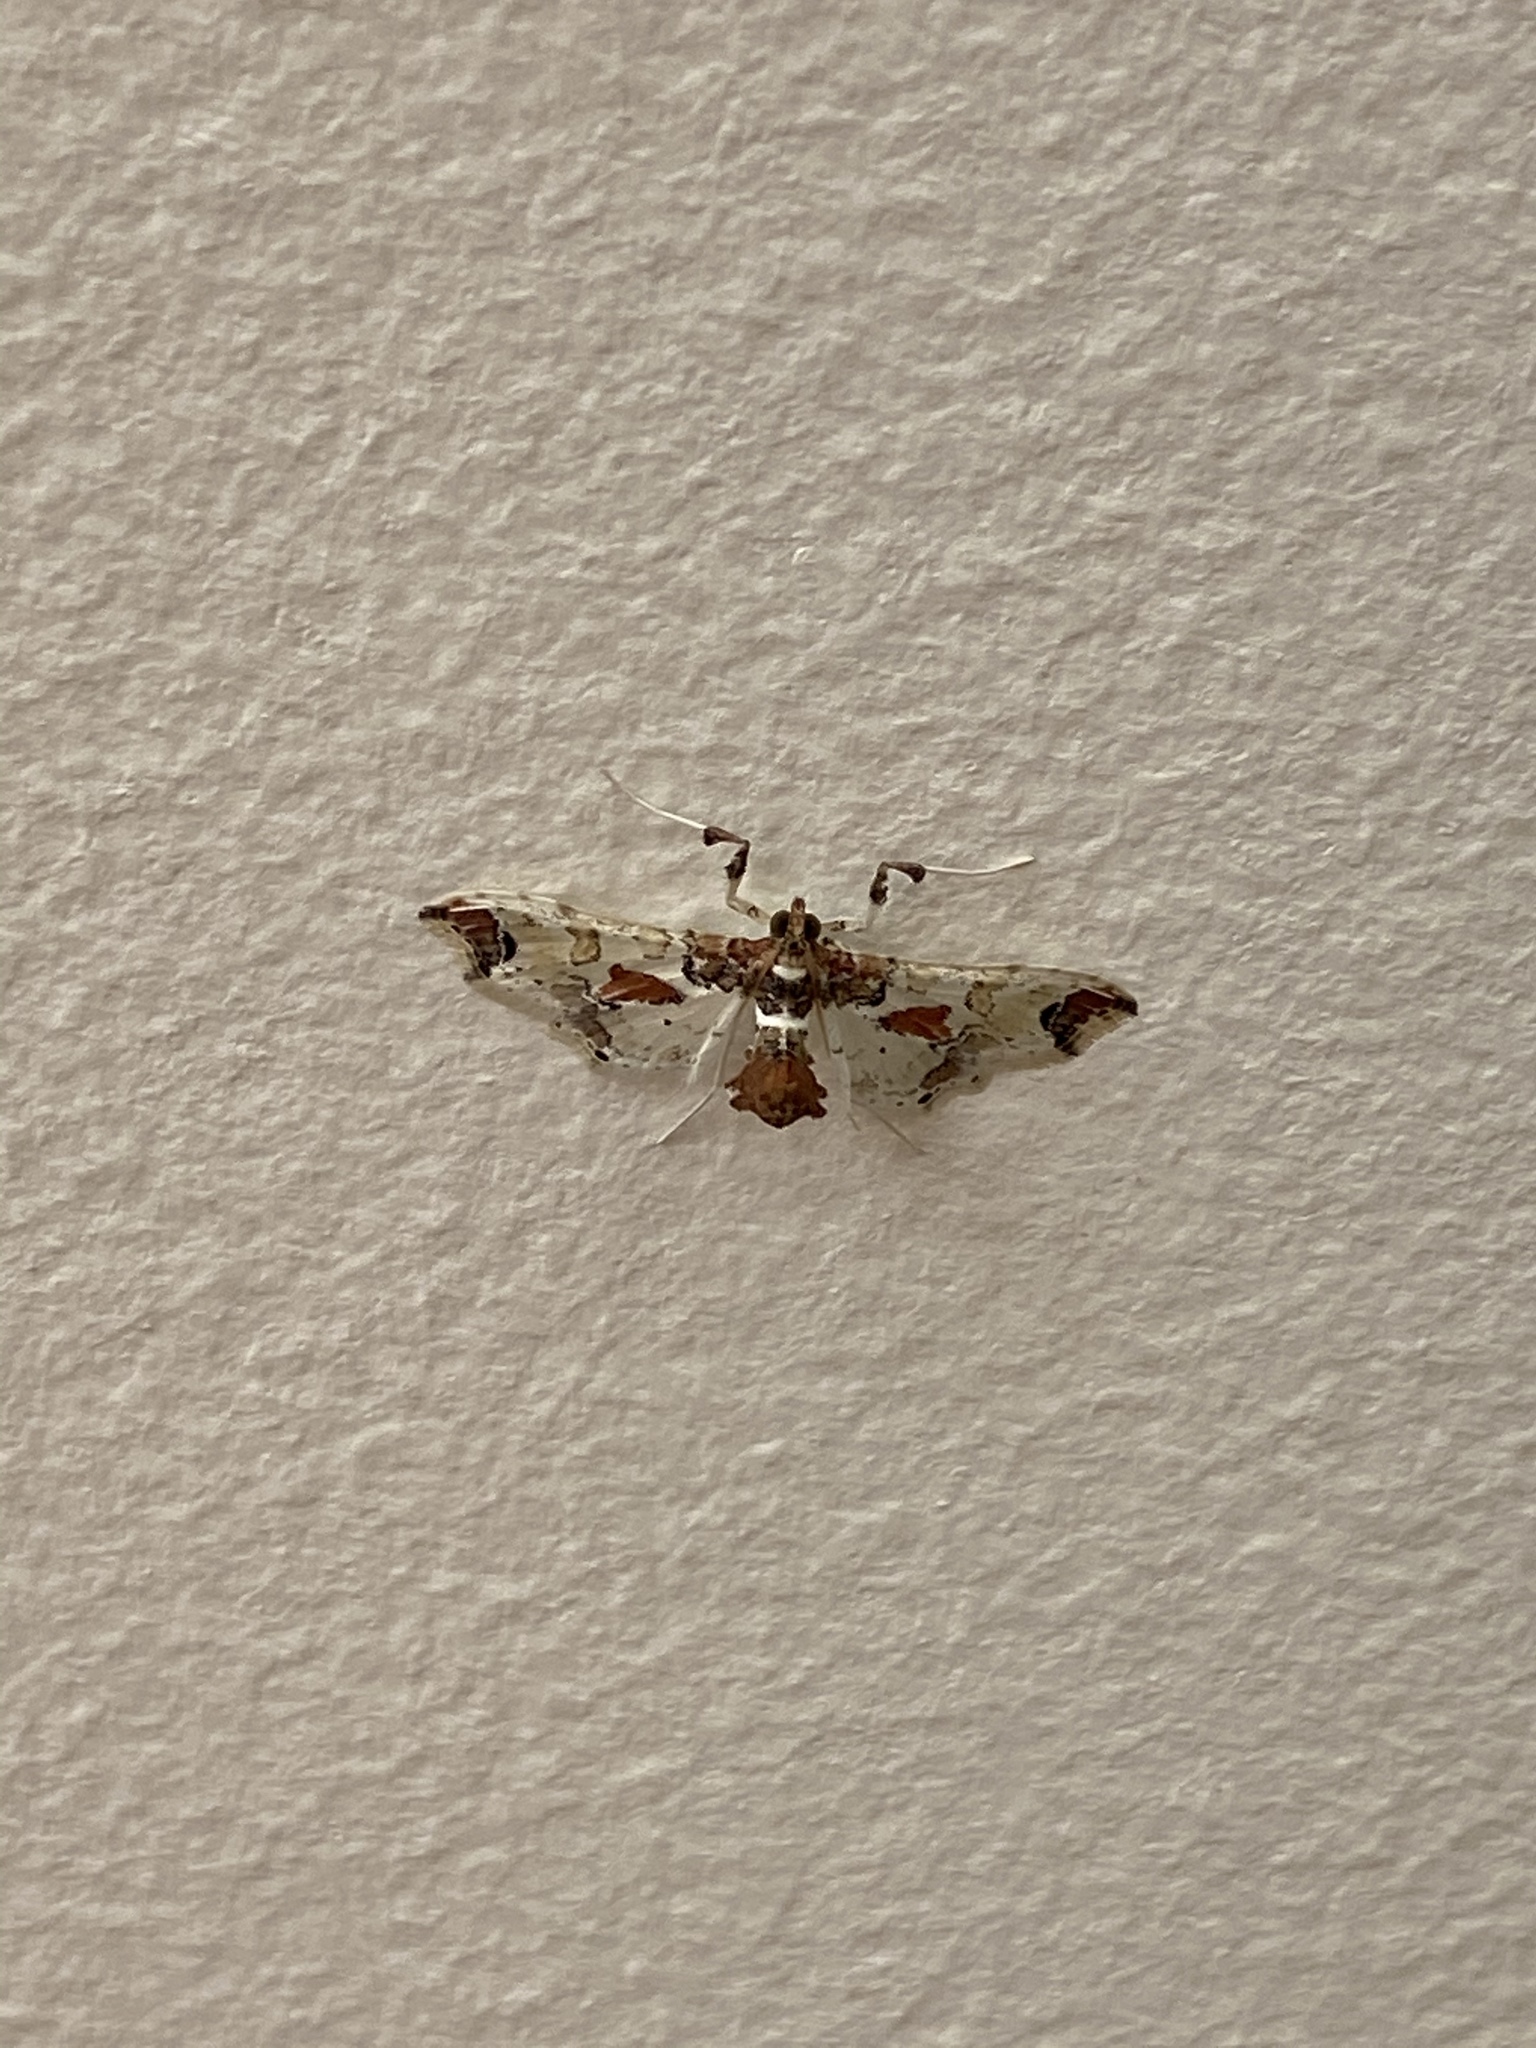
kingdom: Animalia
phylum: Arthropoda
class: Insecta
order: Lepidoptera
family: Crambidae
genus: Neoleucinodes
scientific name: Neoleucinodes elegantalis
